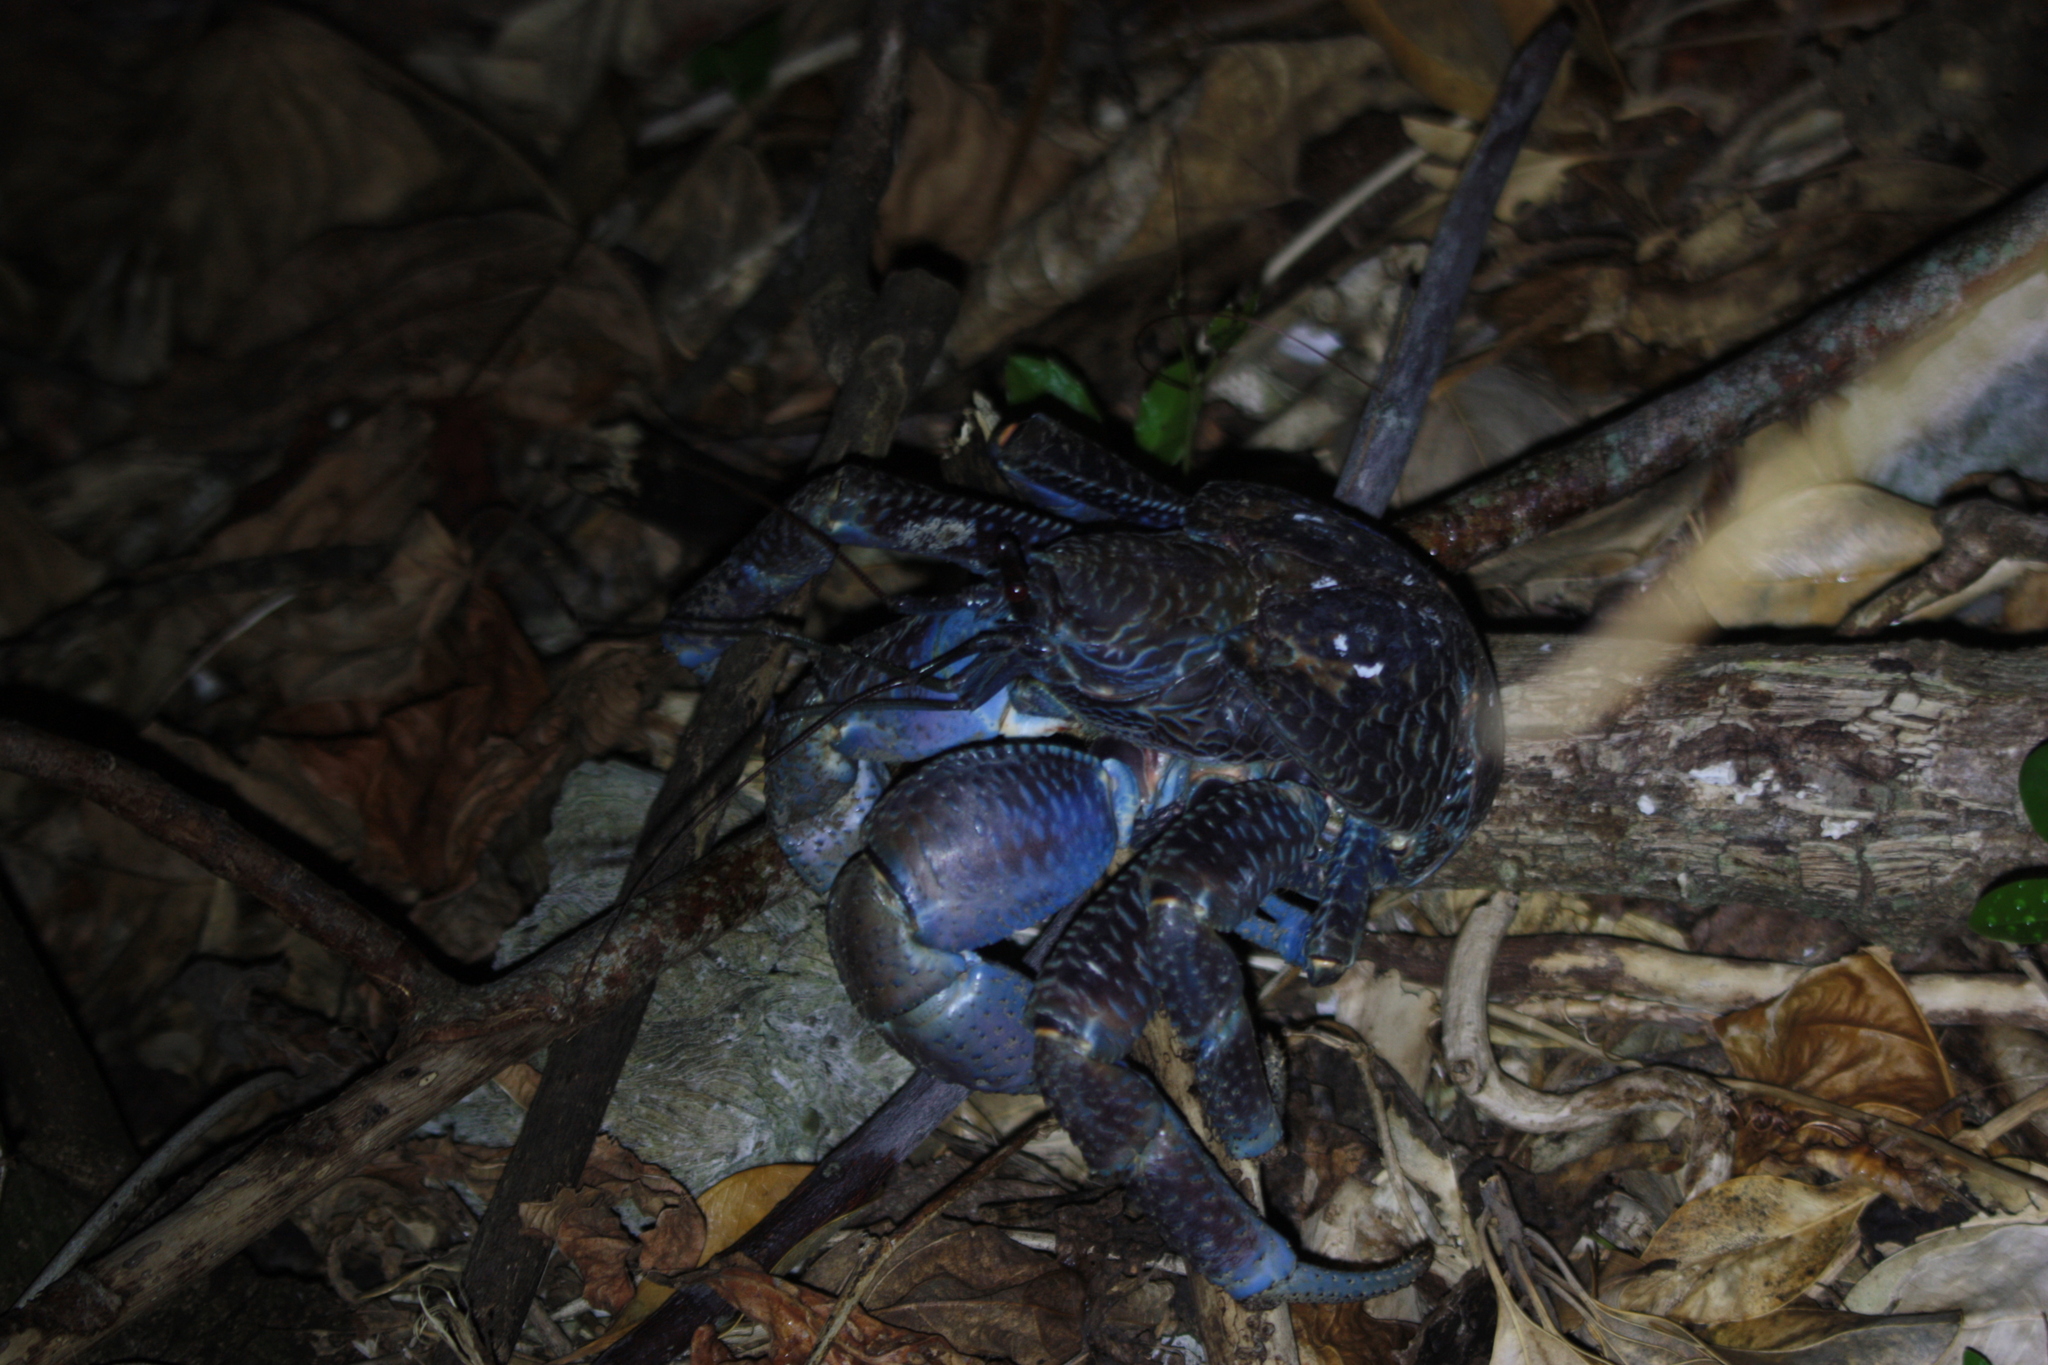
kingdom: Animalia
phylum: Arthropoda
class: Malacostraca
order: Decapoda
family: Coenobitidae
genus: Birgus
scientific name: Birgus latro
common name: Coconut crab
